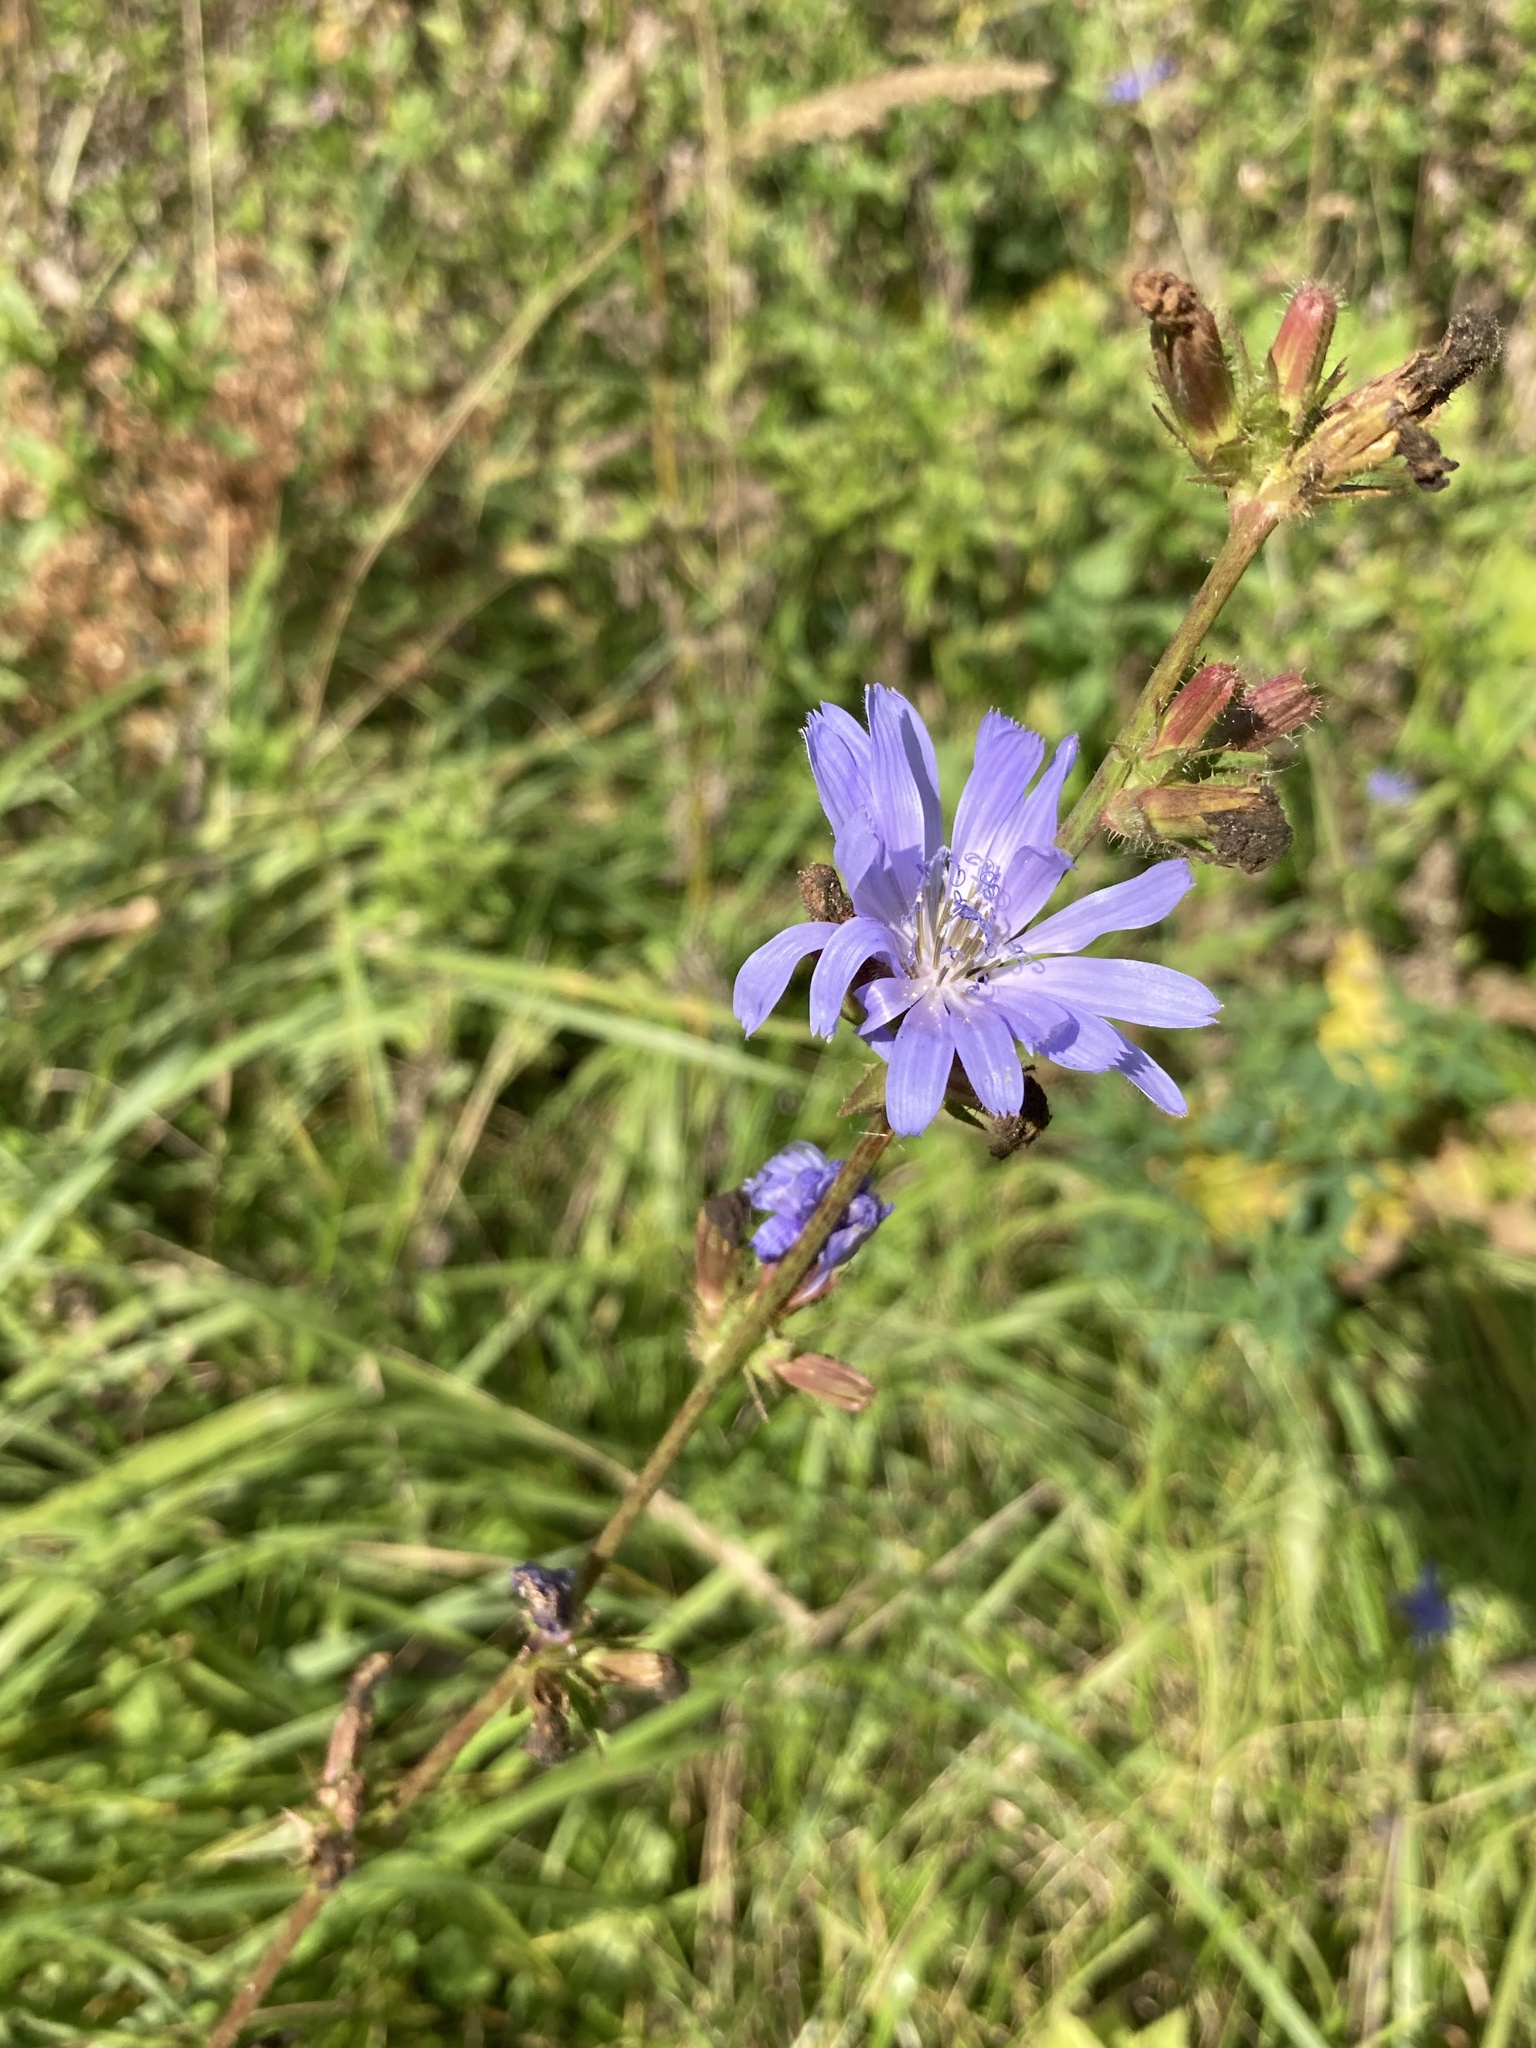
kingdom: Plantae
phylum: Tracheophyta
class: Magnoliopsida
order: Asterales
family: Asteraceae
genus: Cichorium
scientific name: Cichorium intybus
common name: Chicory
